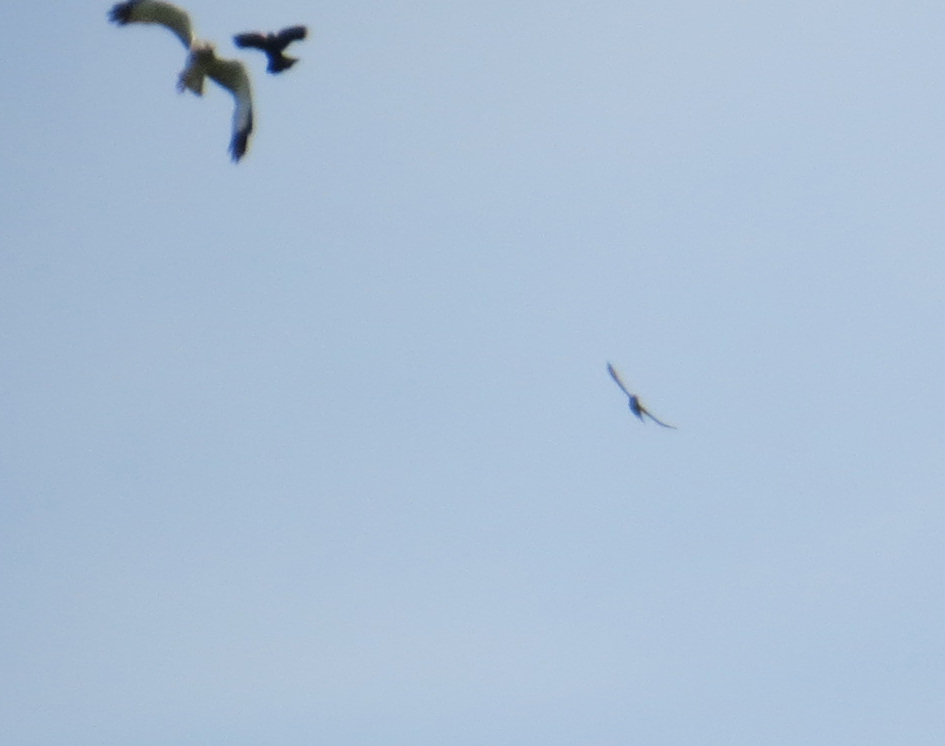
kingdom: Animalia
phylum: Chordata
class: Aves
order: Accipitriformes
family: Accipitridae
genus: Circus
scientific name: Circus cyaneus
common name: Hen harrier
